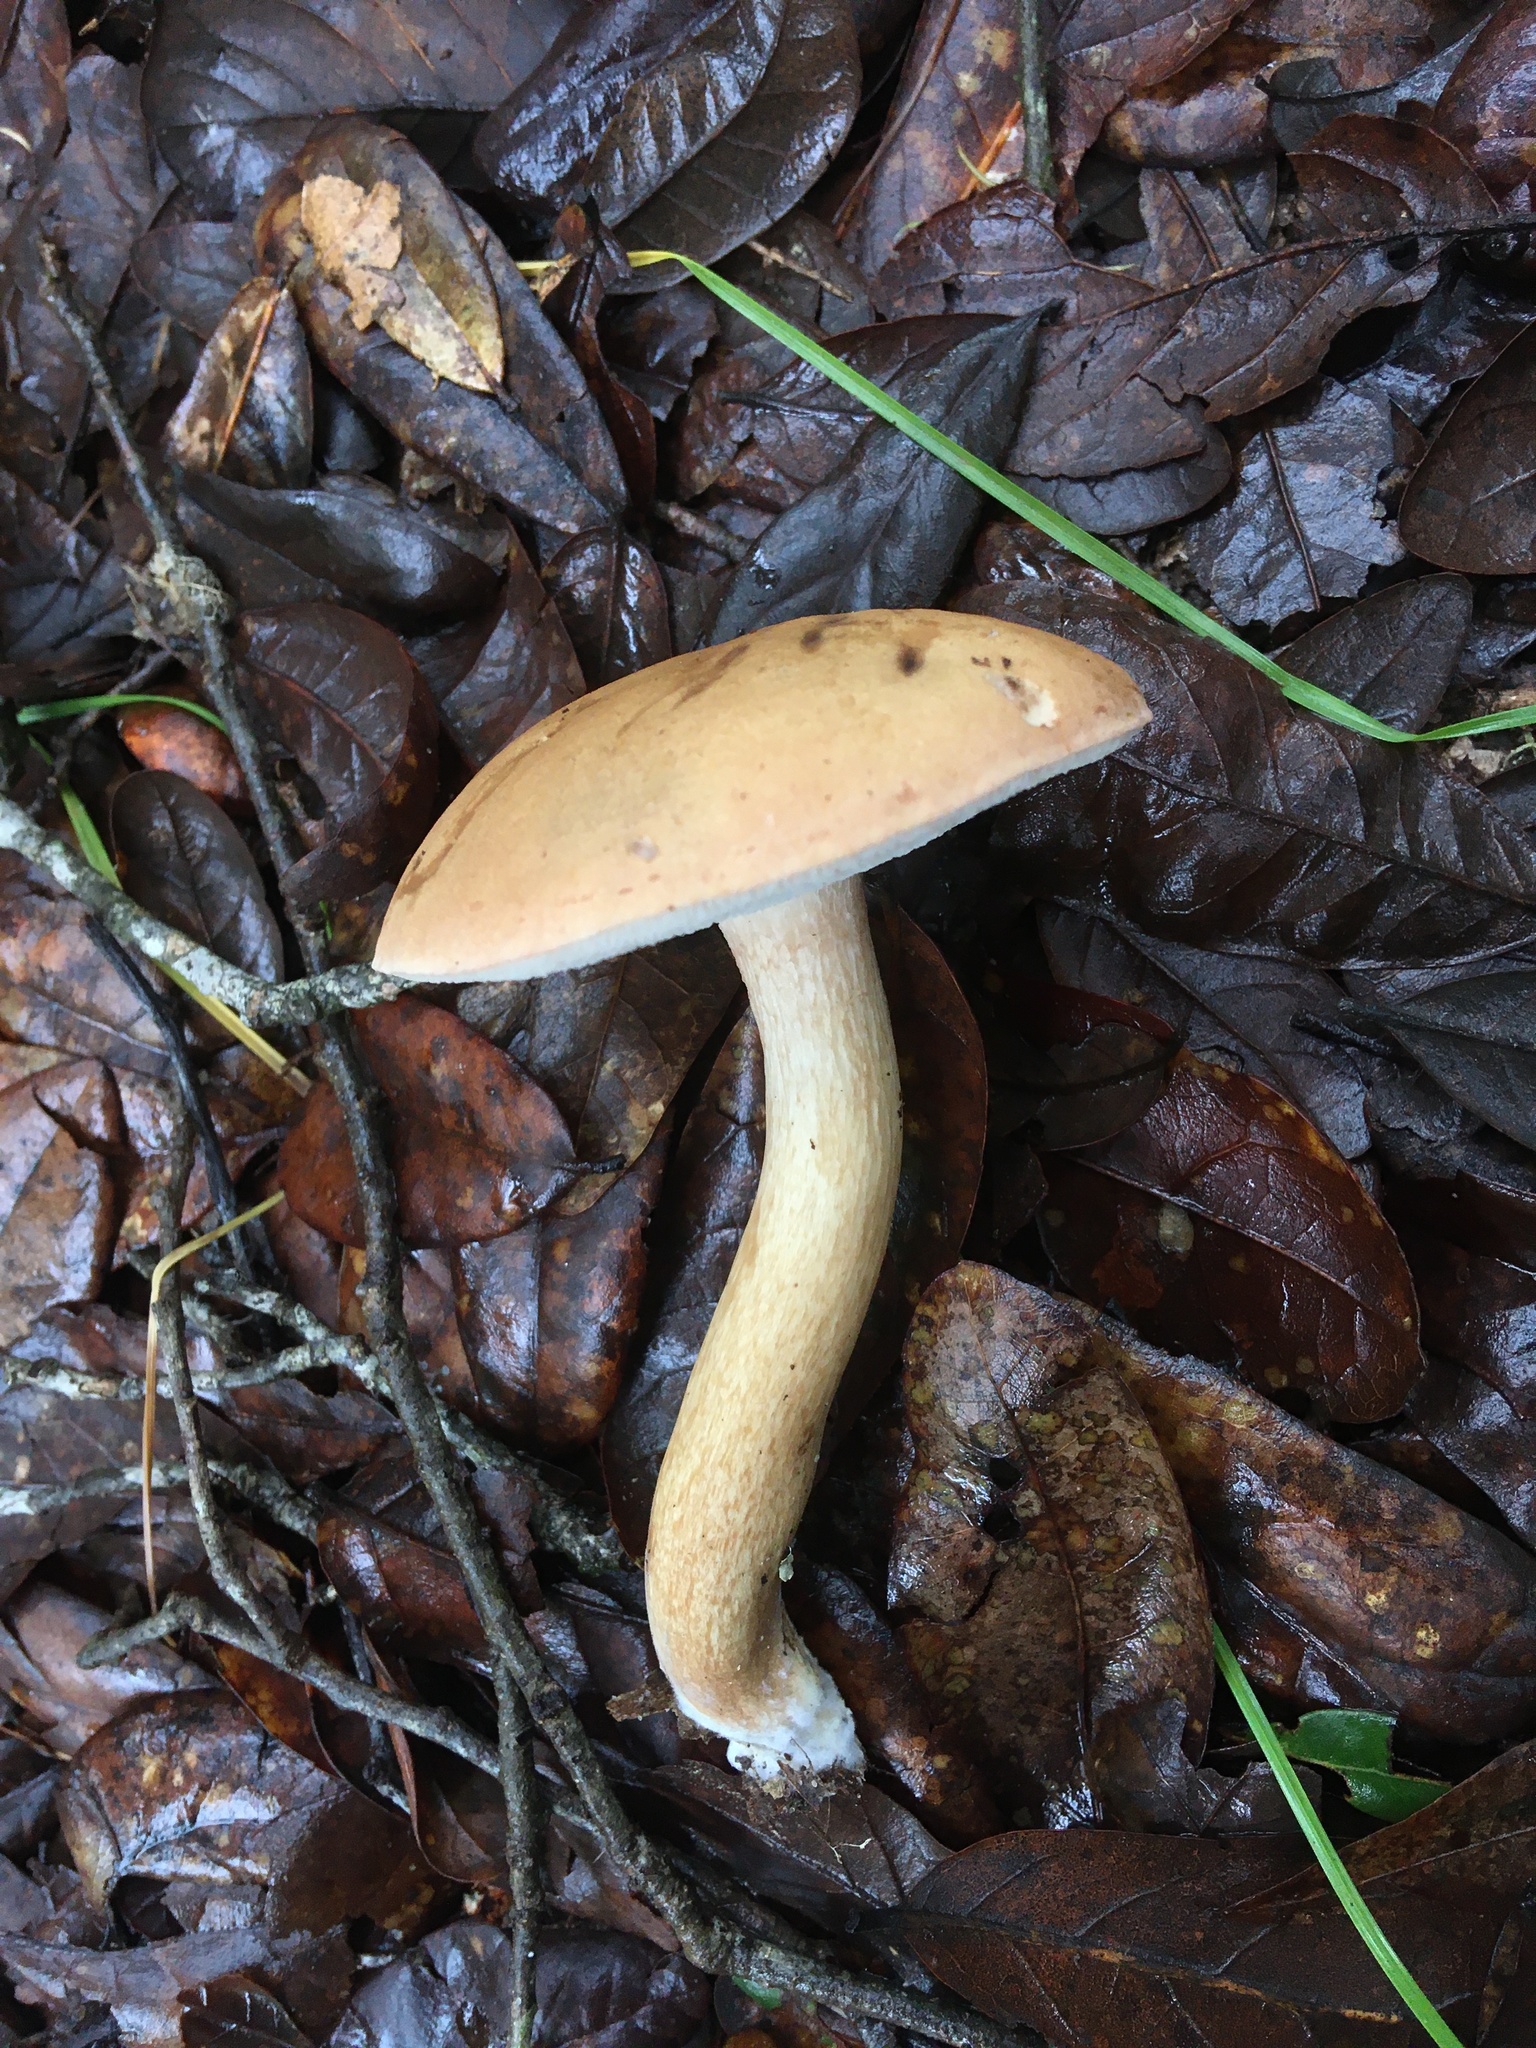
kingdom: Fungi
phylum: Basidiomycota
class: Agaricomycetes
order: Boletales
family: Boletaceae
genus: Tylopilus
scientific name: Tylopilus minor
